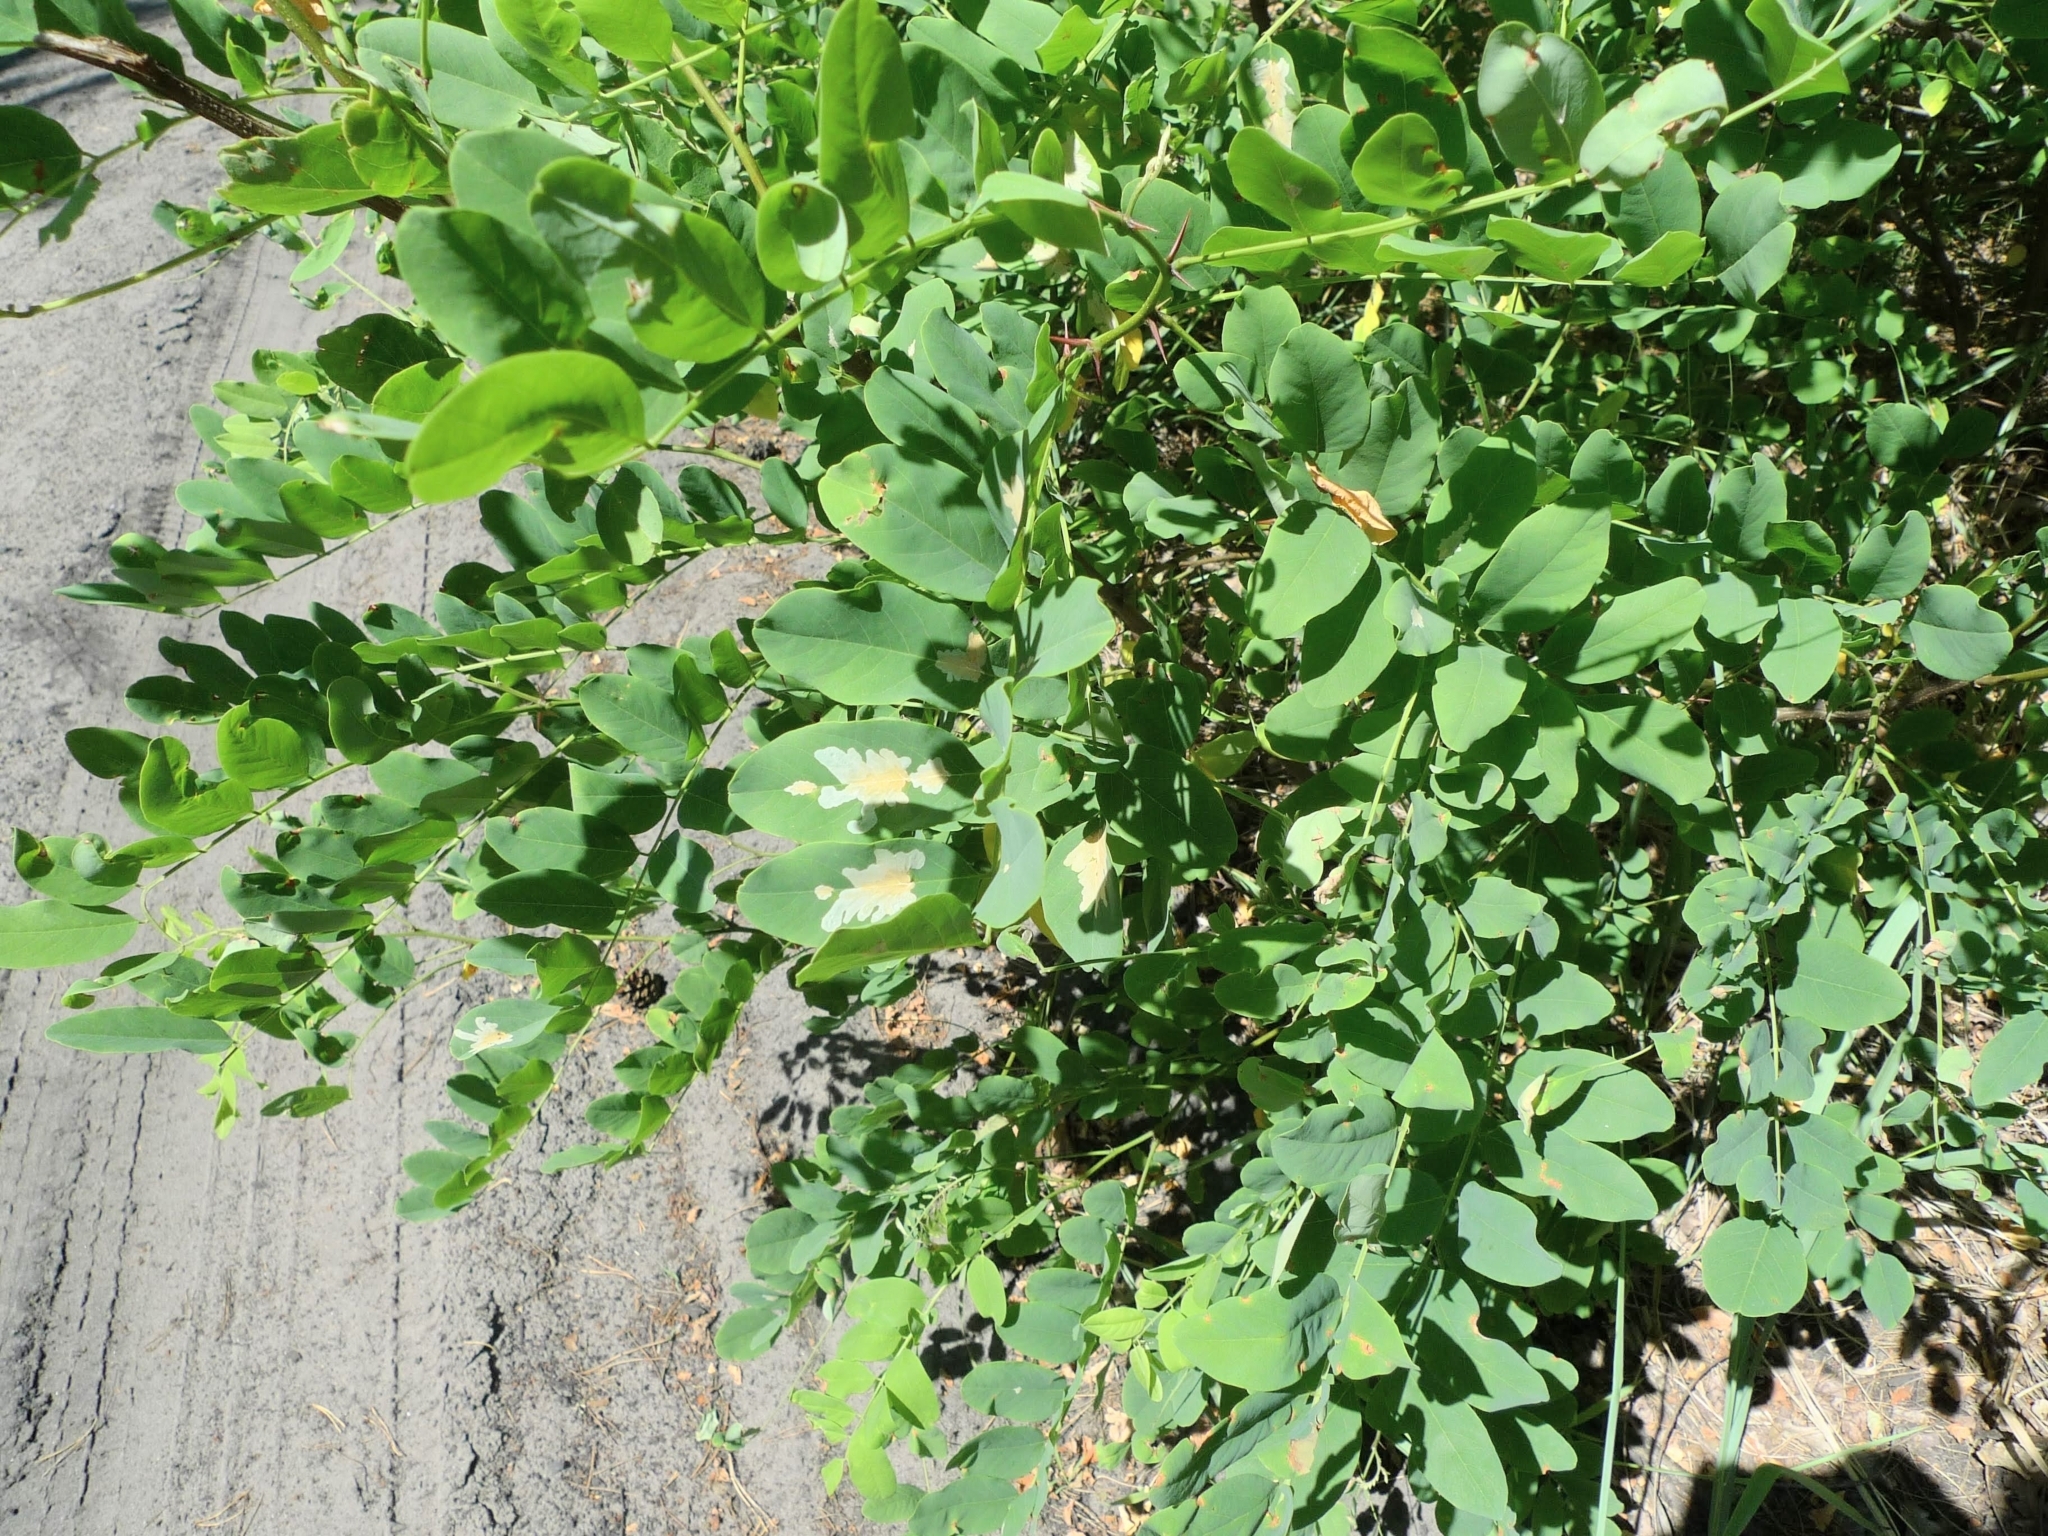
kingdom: Plantae
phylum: Tracheophyta
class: Magnoliopsida
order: Fabales
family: Fabaceae
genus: Robinia
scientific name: Robinia pseudoacacia
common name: Black locust
